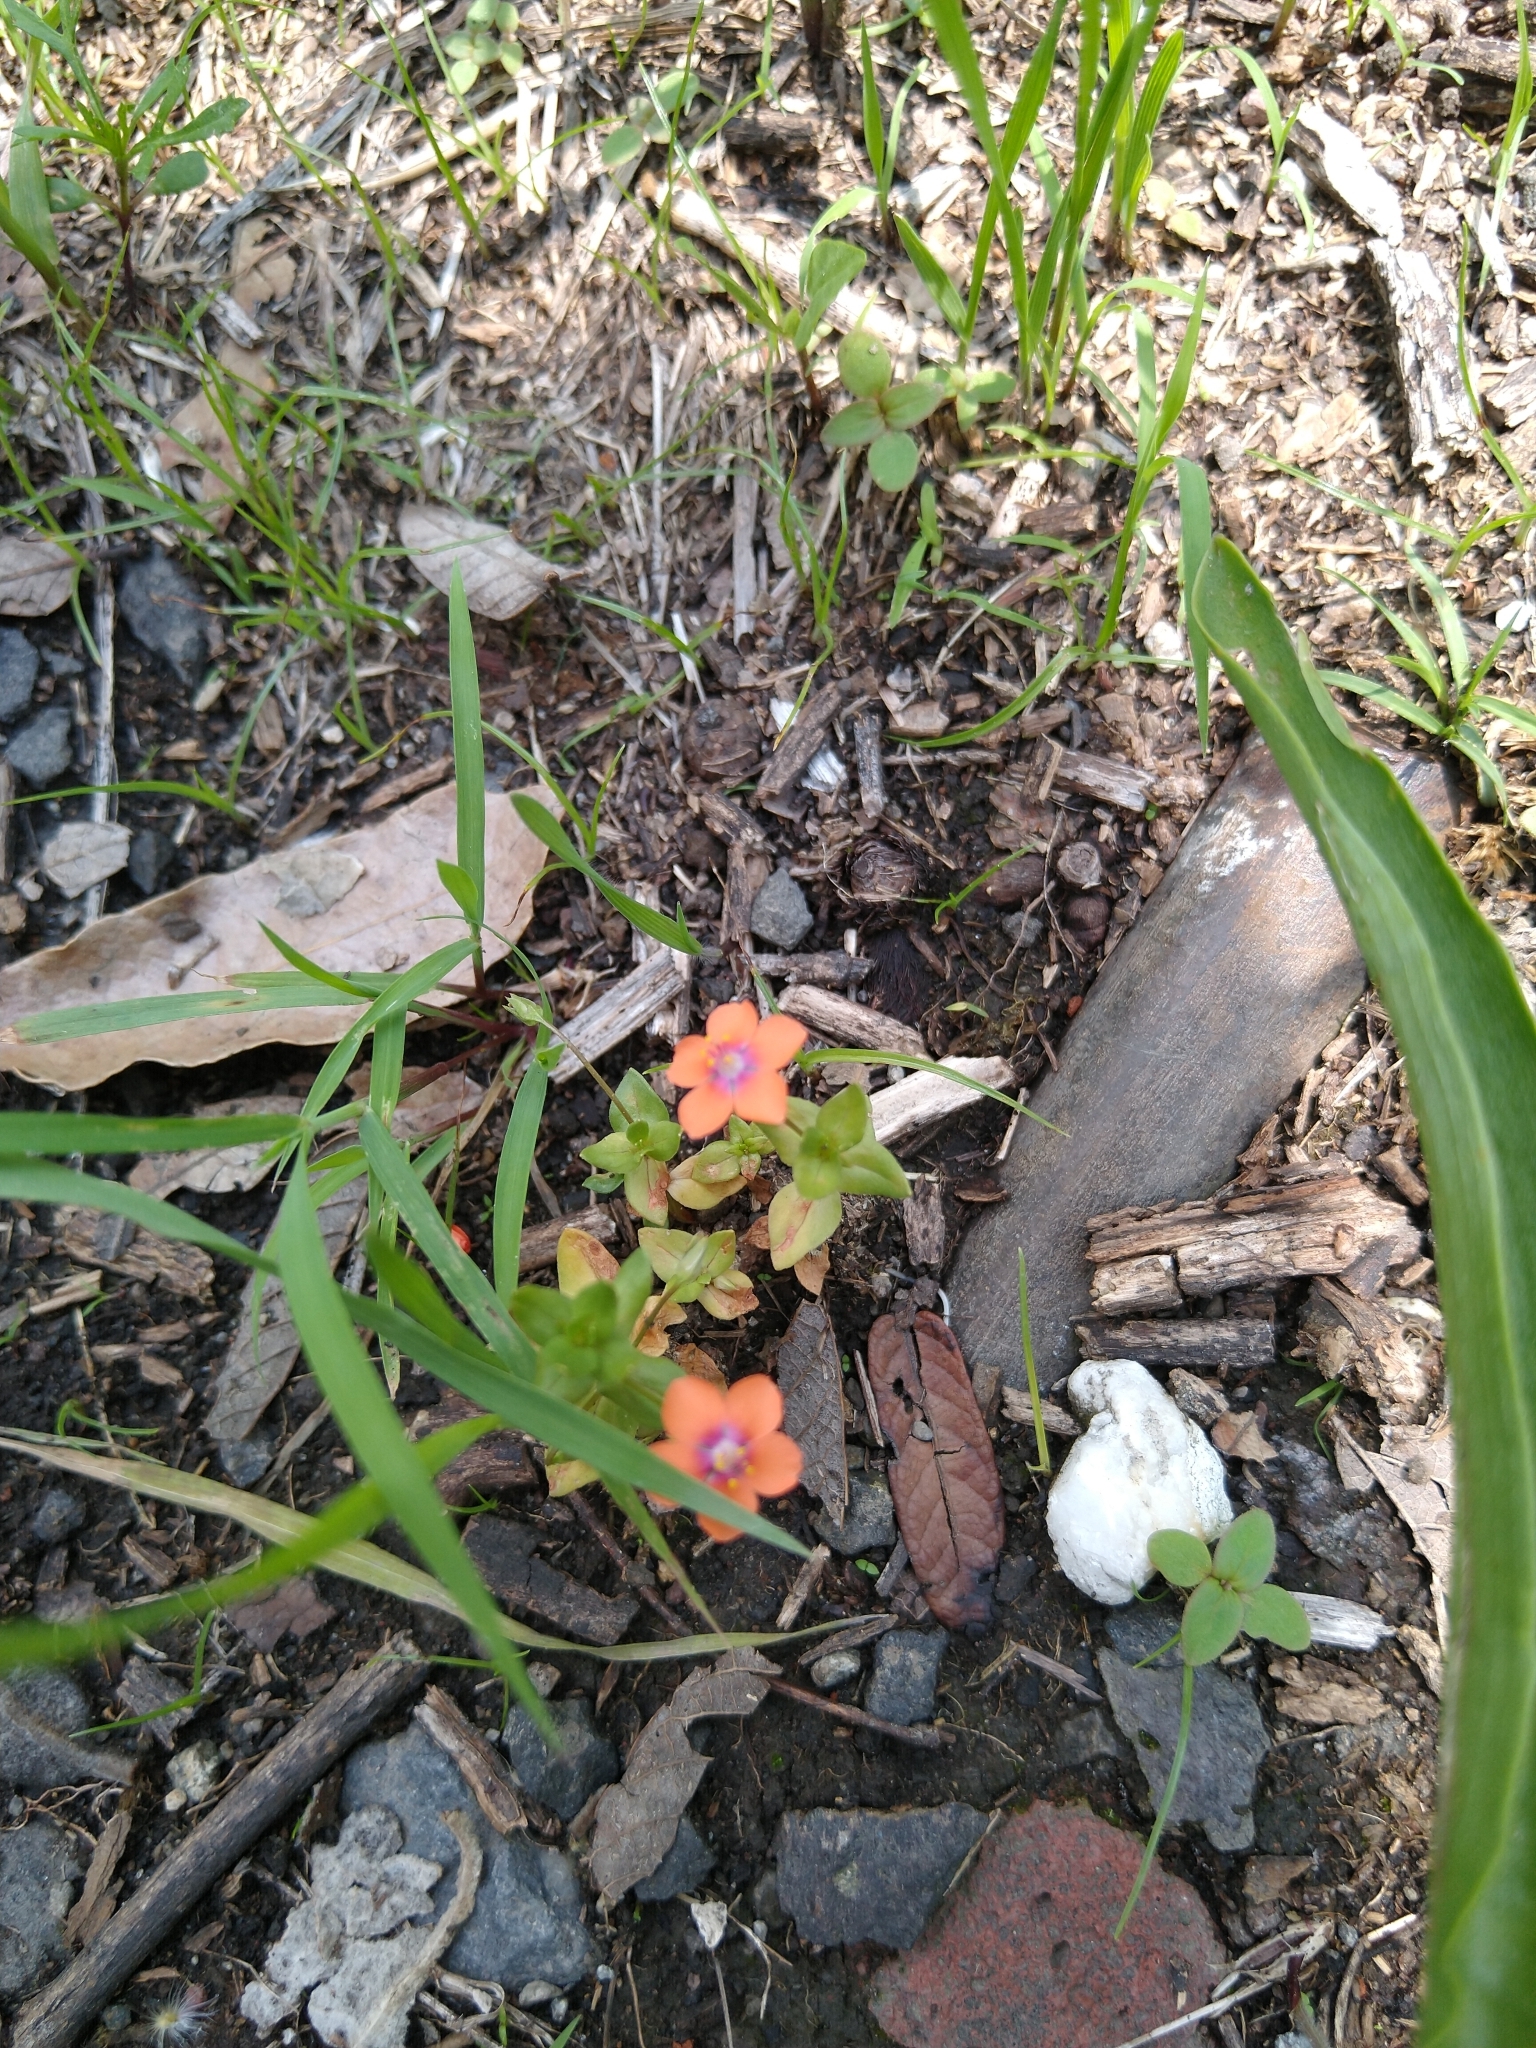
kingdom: Plantae
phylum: Tracheophyta
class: Magnoliopsida
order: Ericales
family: Primulaceae
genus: Lysimachia
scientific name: Lysimachia arvensis
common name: Scarlet pimpernel
